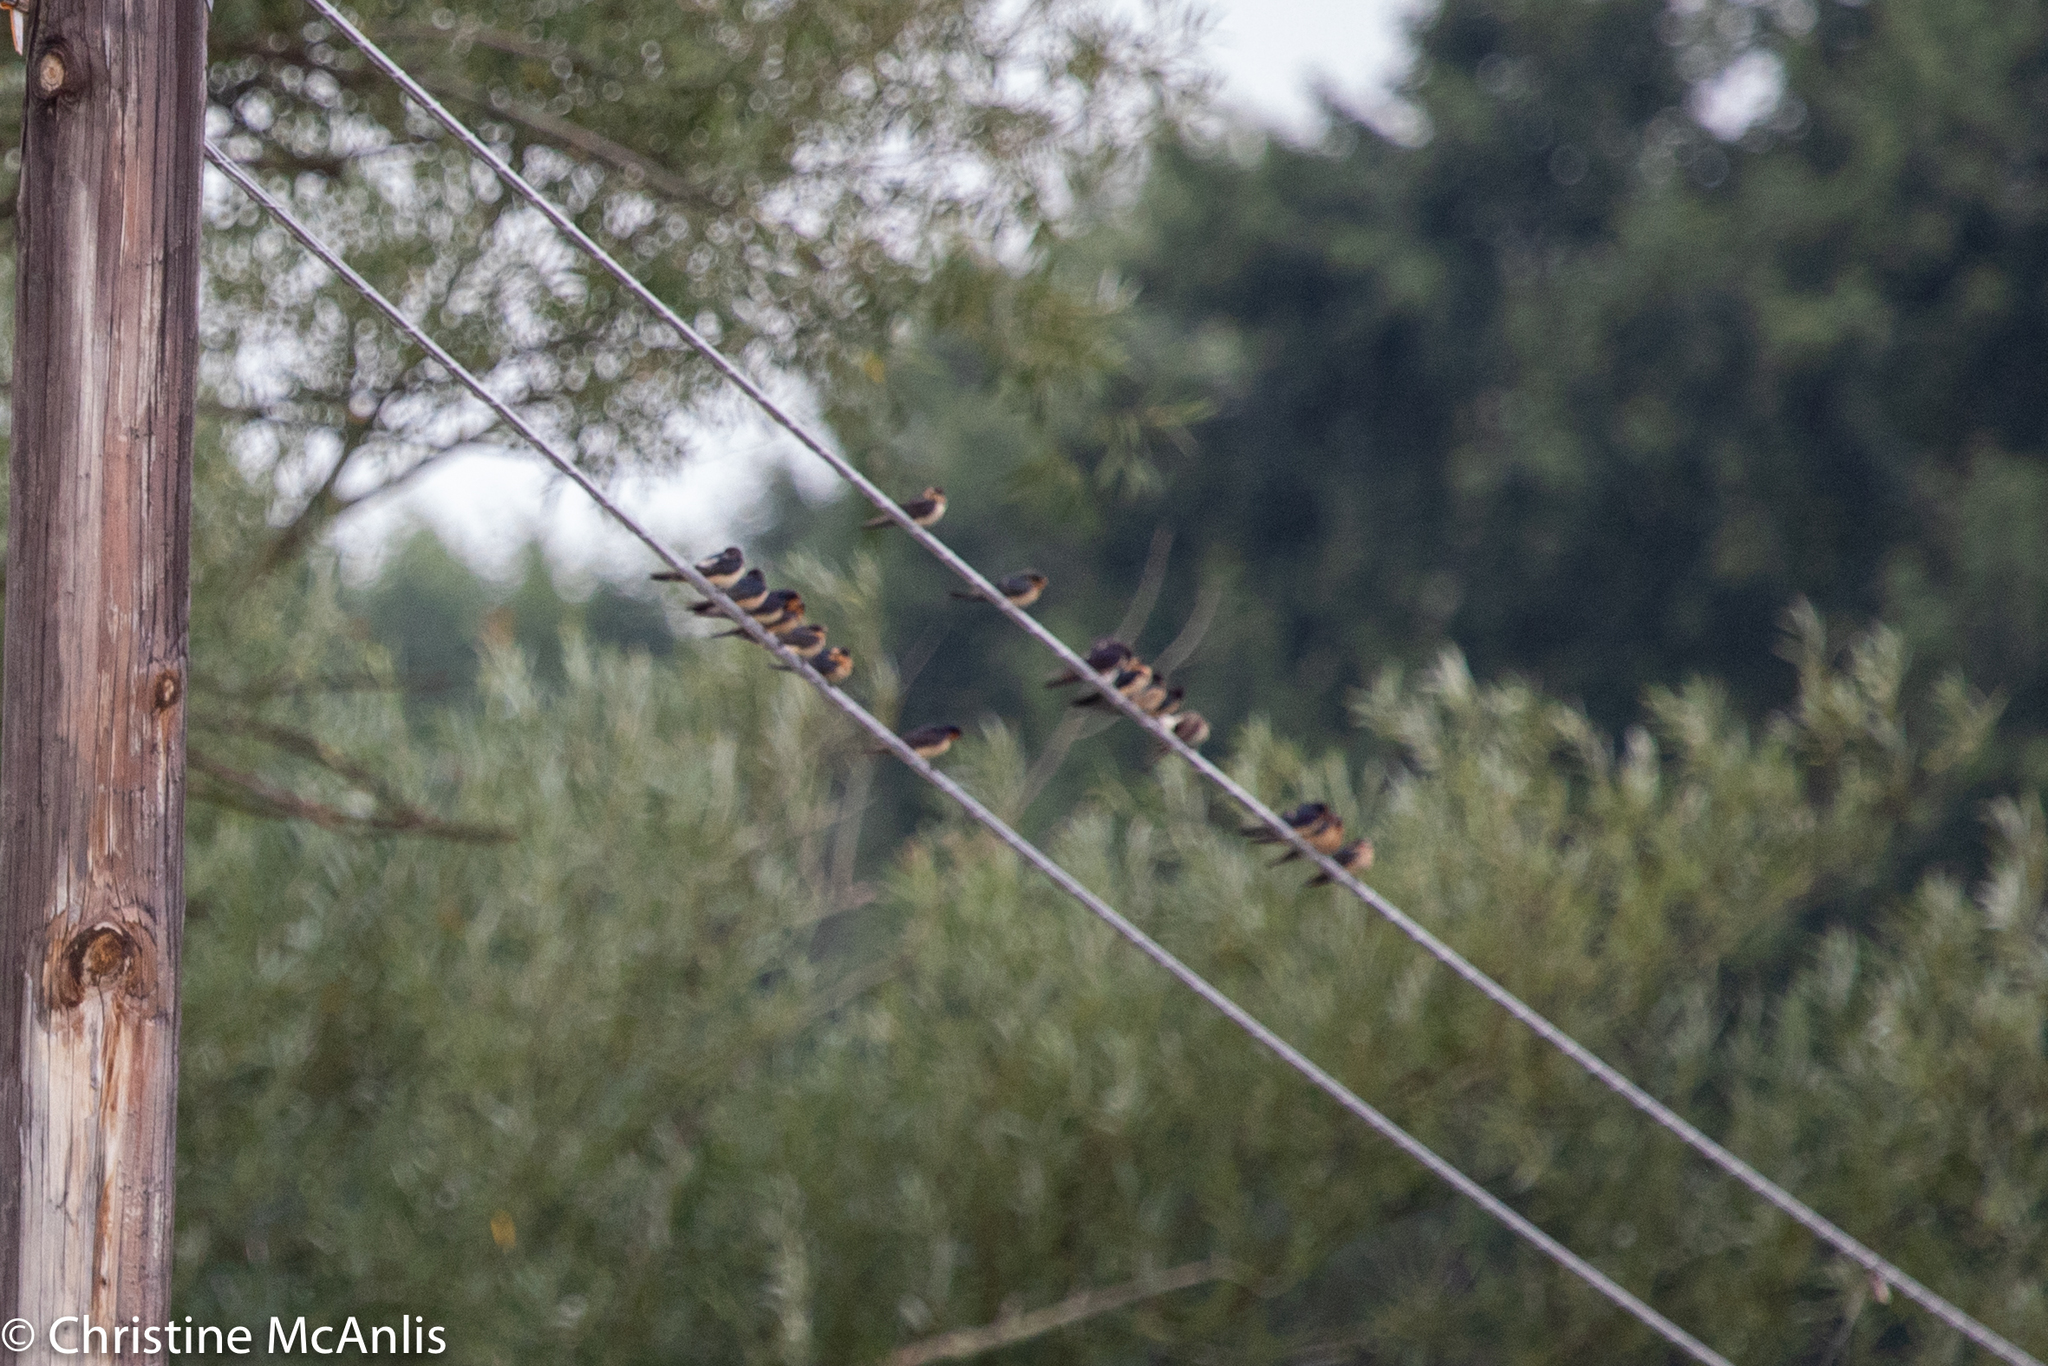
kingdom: Animalia
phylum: Chordata
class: Aves
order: Passeriformes
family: Hirundinidae
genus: Hirundo
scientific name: Hirundo rustica
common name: Barn swallow
